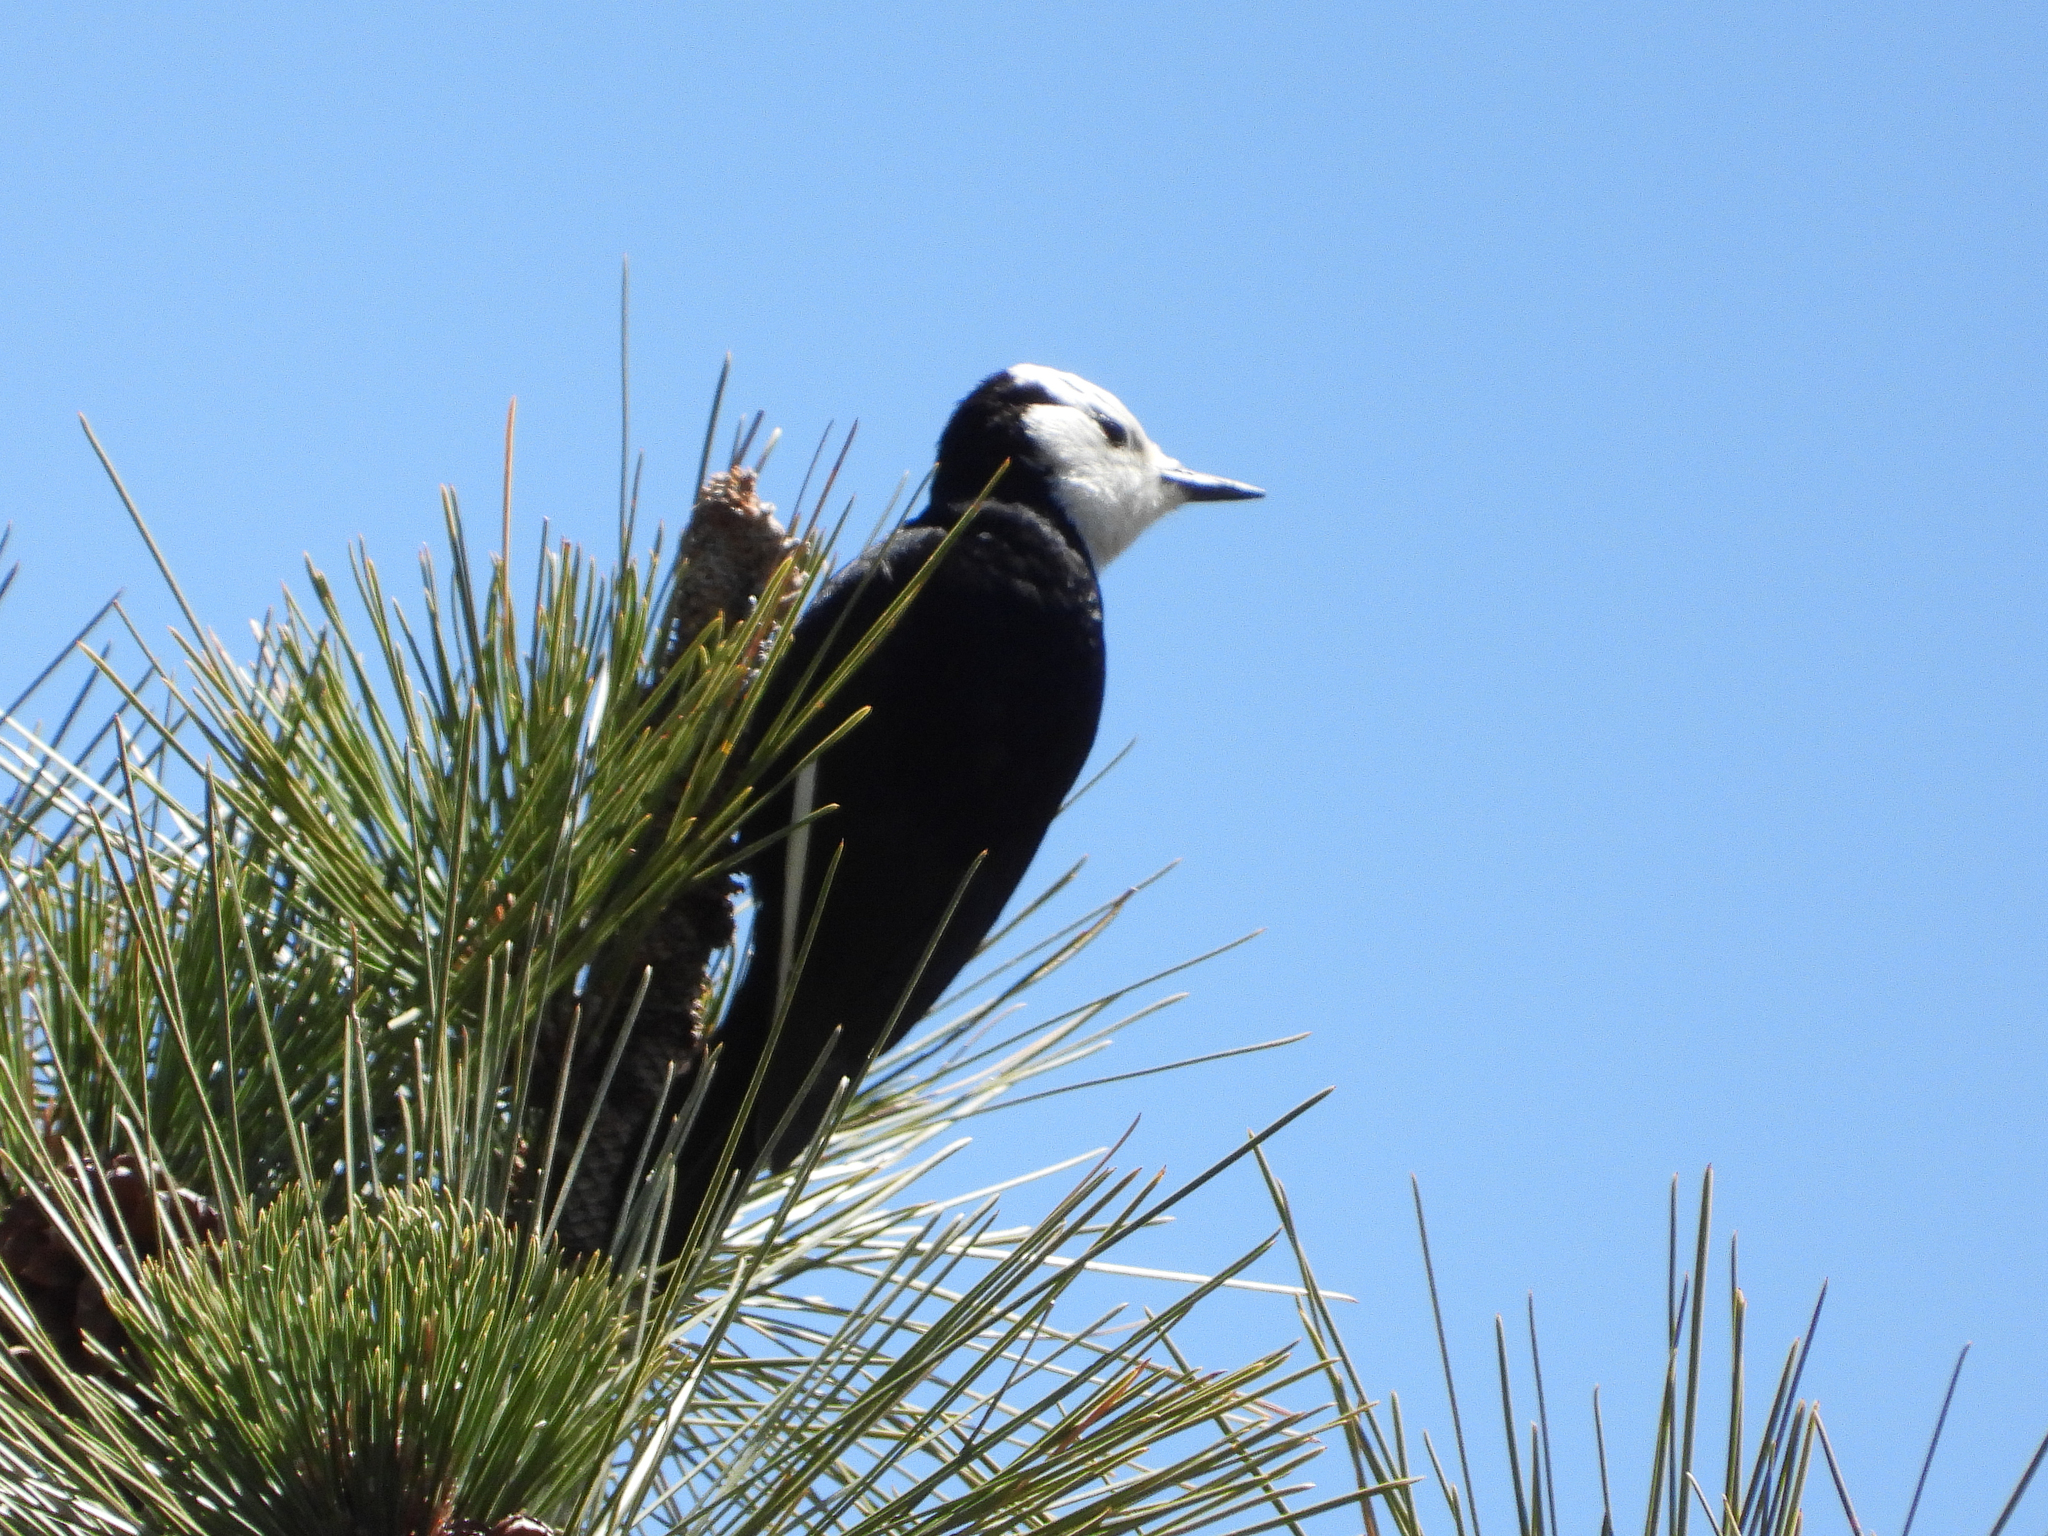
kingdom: Animalia
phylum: Chordata
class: Aves
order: Piciformes
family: Picidae
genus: Leuconotopicus
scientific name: Leuconotopicus albolarvatus
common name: White-headed woodpecker
